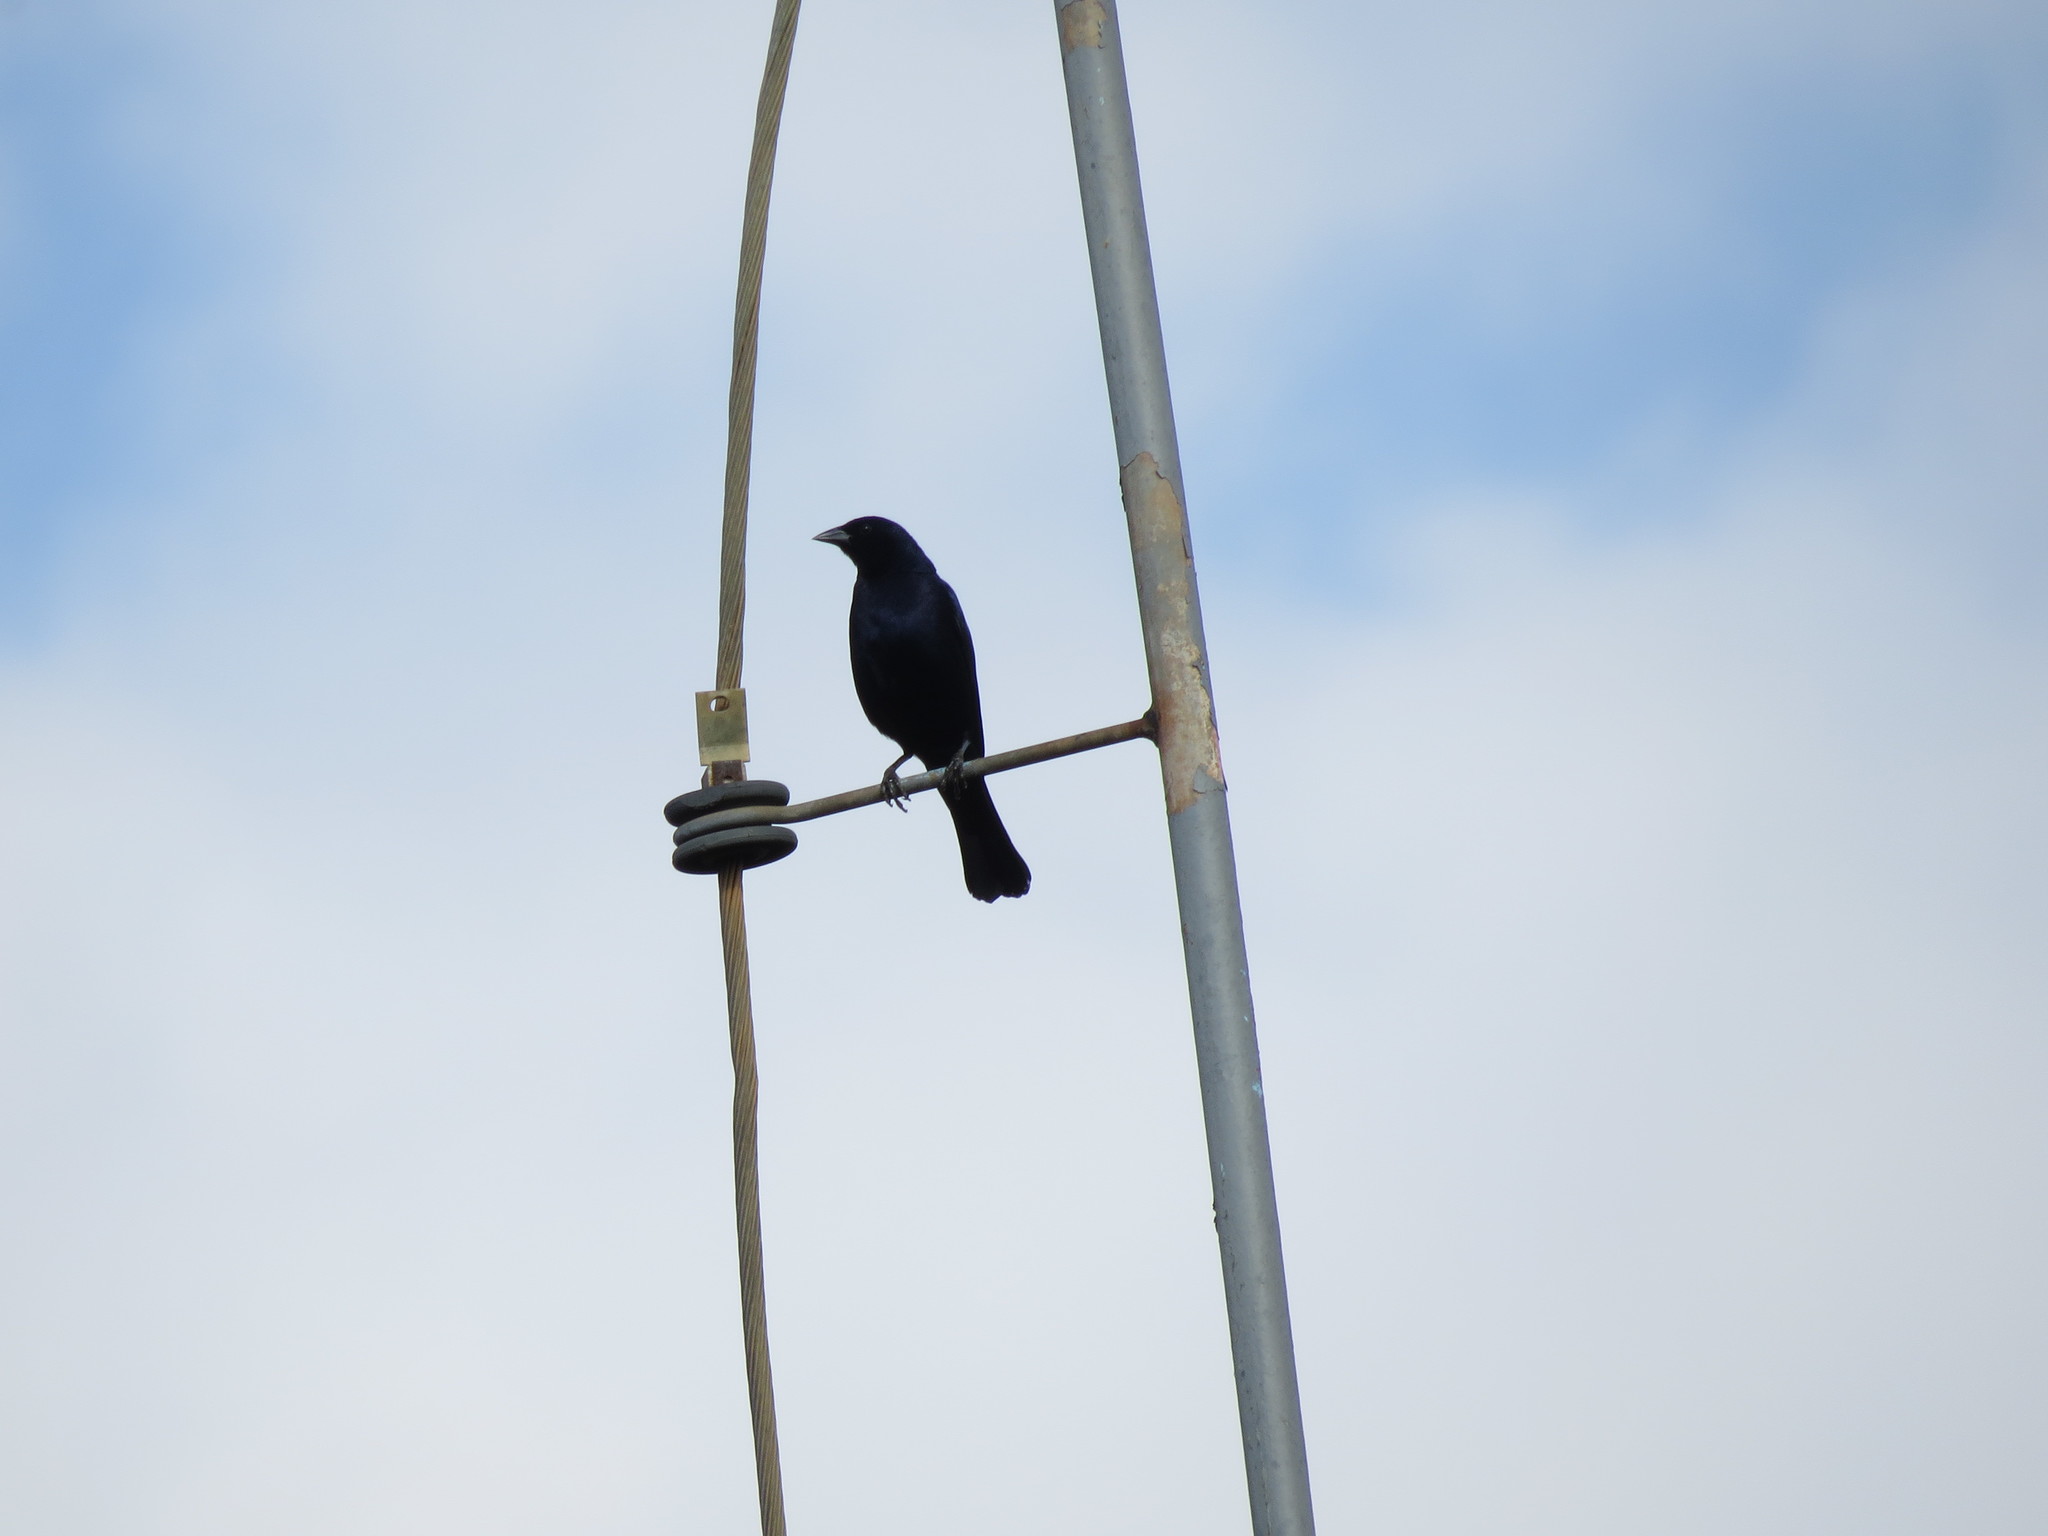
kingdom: Animalia
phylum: Chordata
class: Aves
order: Passeriformes
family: Icteridae
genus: Molothrus
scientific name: Molothrus bonariensis
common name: Shiny cowbird
